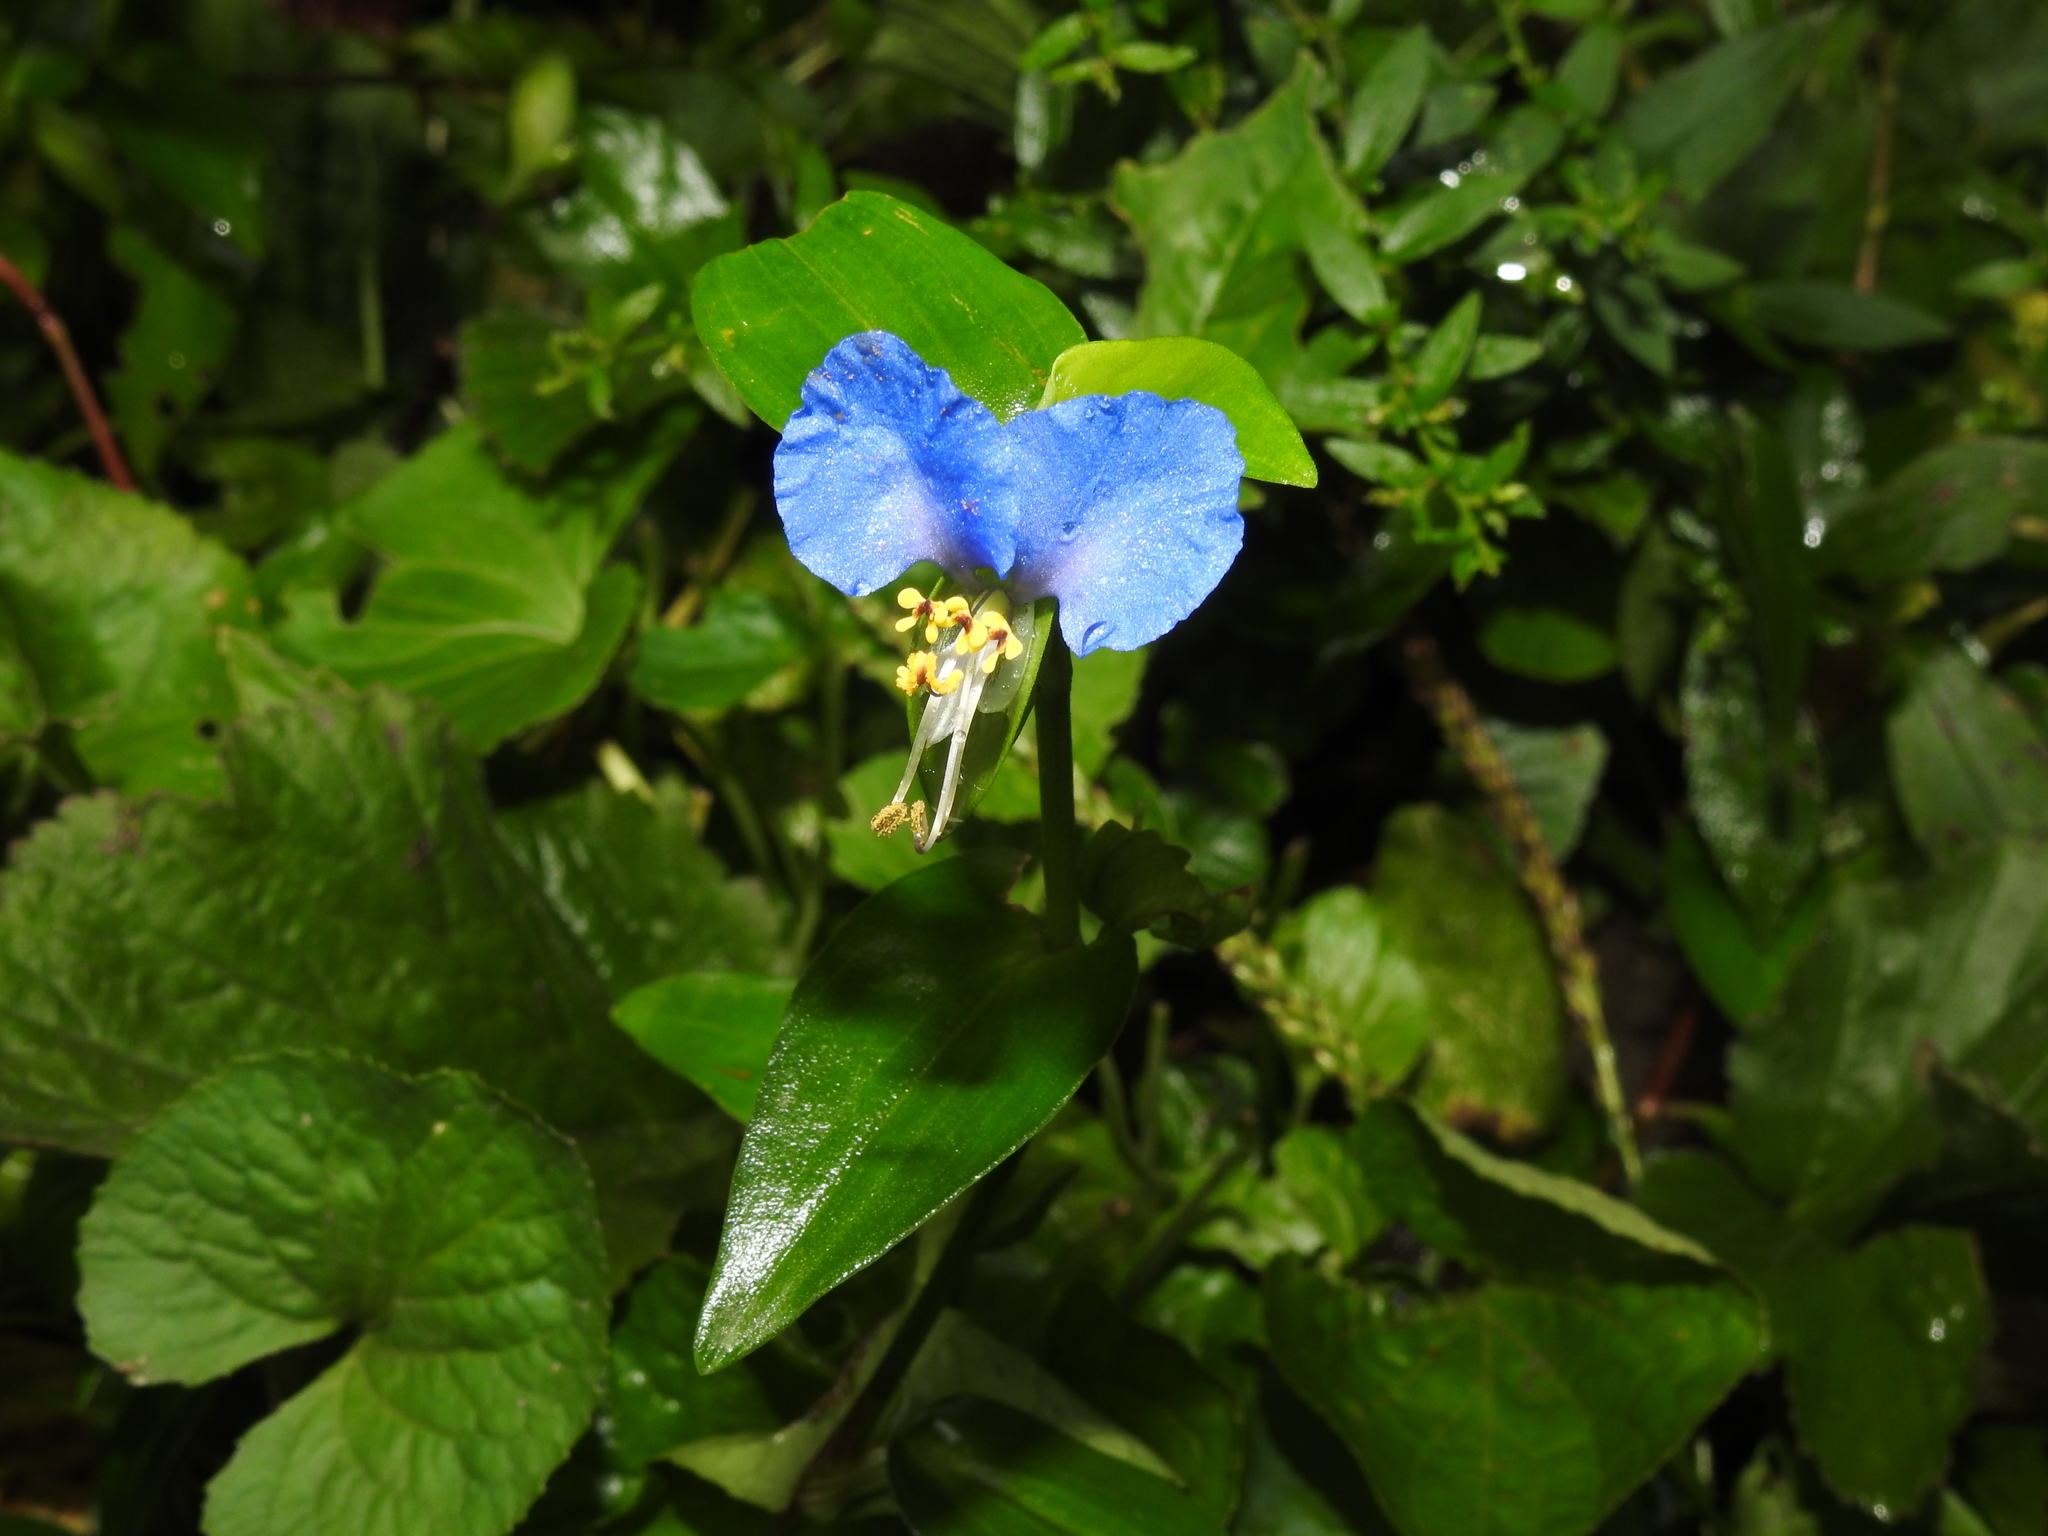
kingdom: Plantae
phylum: Tracheophyta
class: Liliopsida
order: Commelinales
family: Commelinaceae
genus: Commelina
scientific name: Commelina communis
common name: Asiatic dayflower
